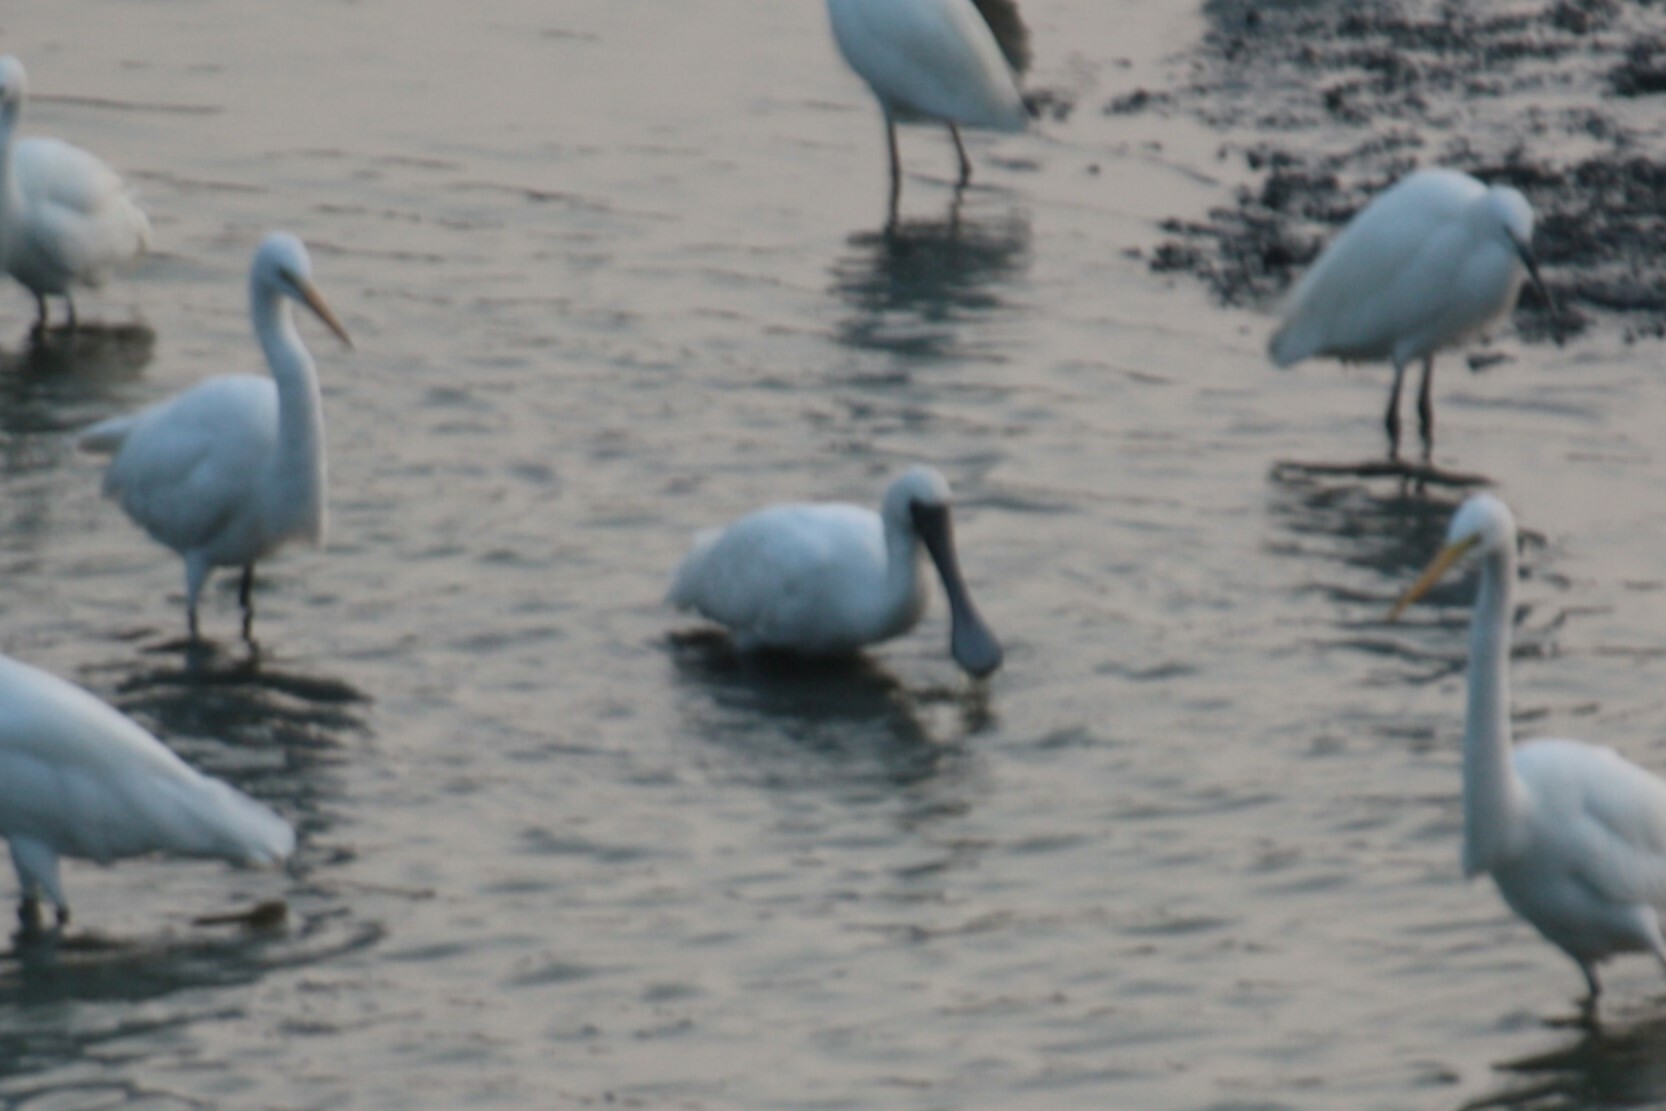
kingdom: Animalia
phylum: Chordata
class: Aves
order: Pelecaniformes
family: Threskiornithidae
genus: Platalea
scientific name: Platalea minor
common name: Black-faced spoonbill
